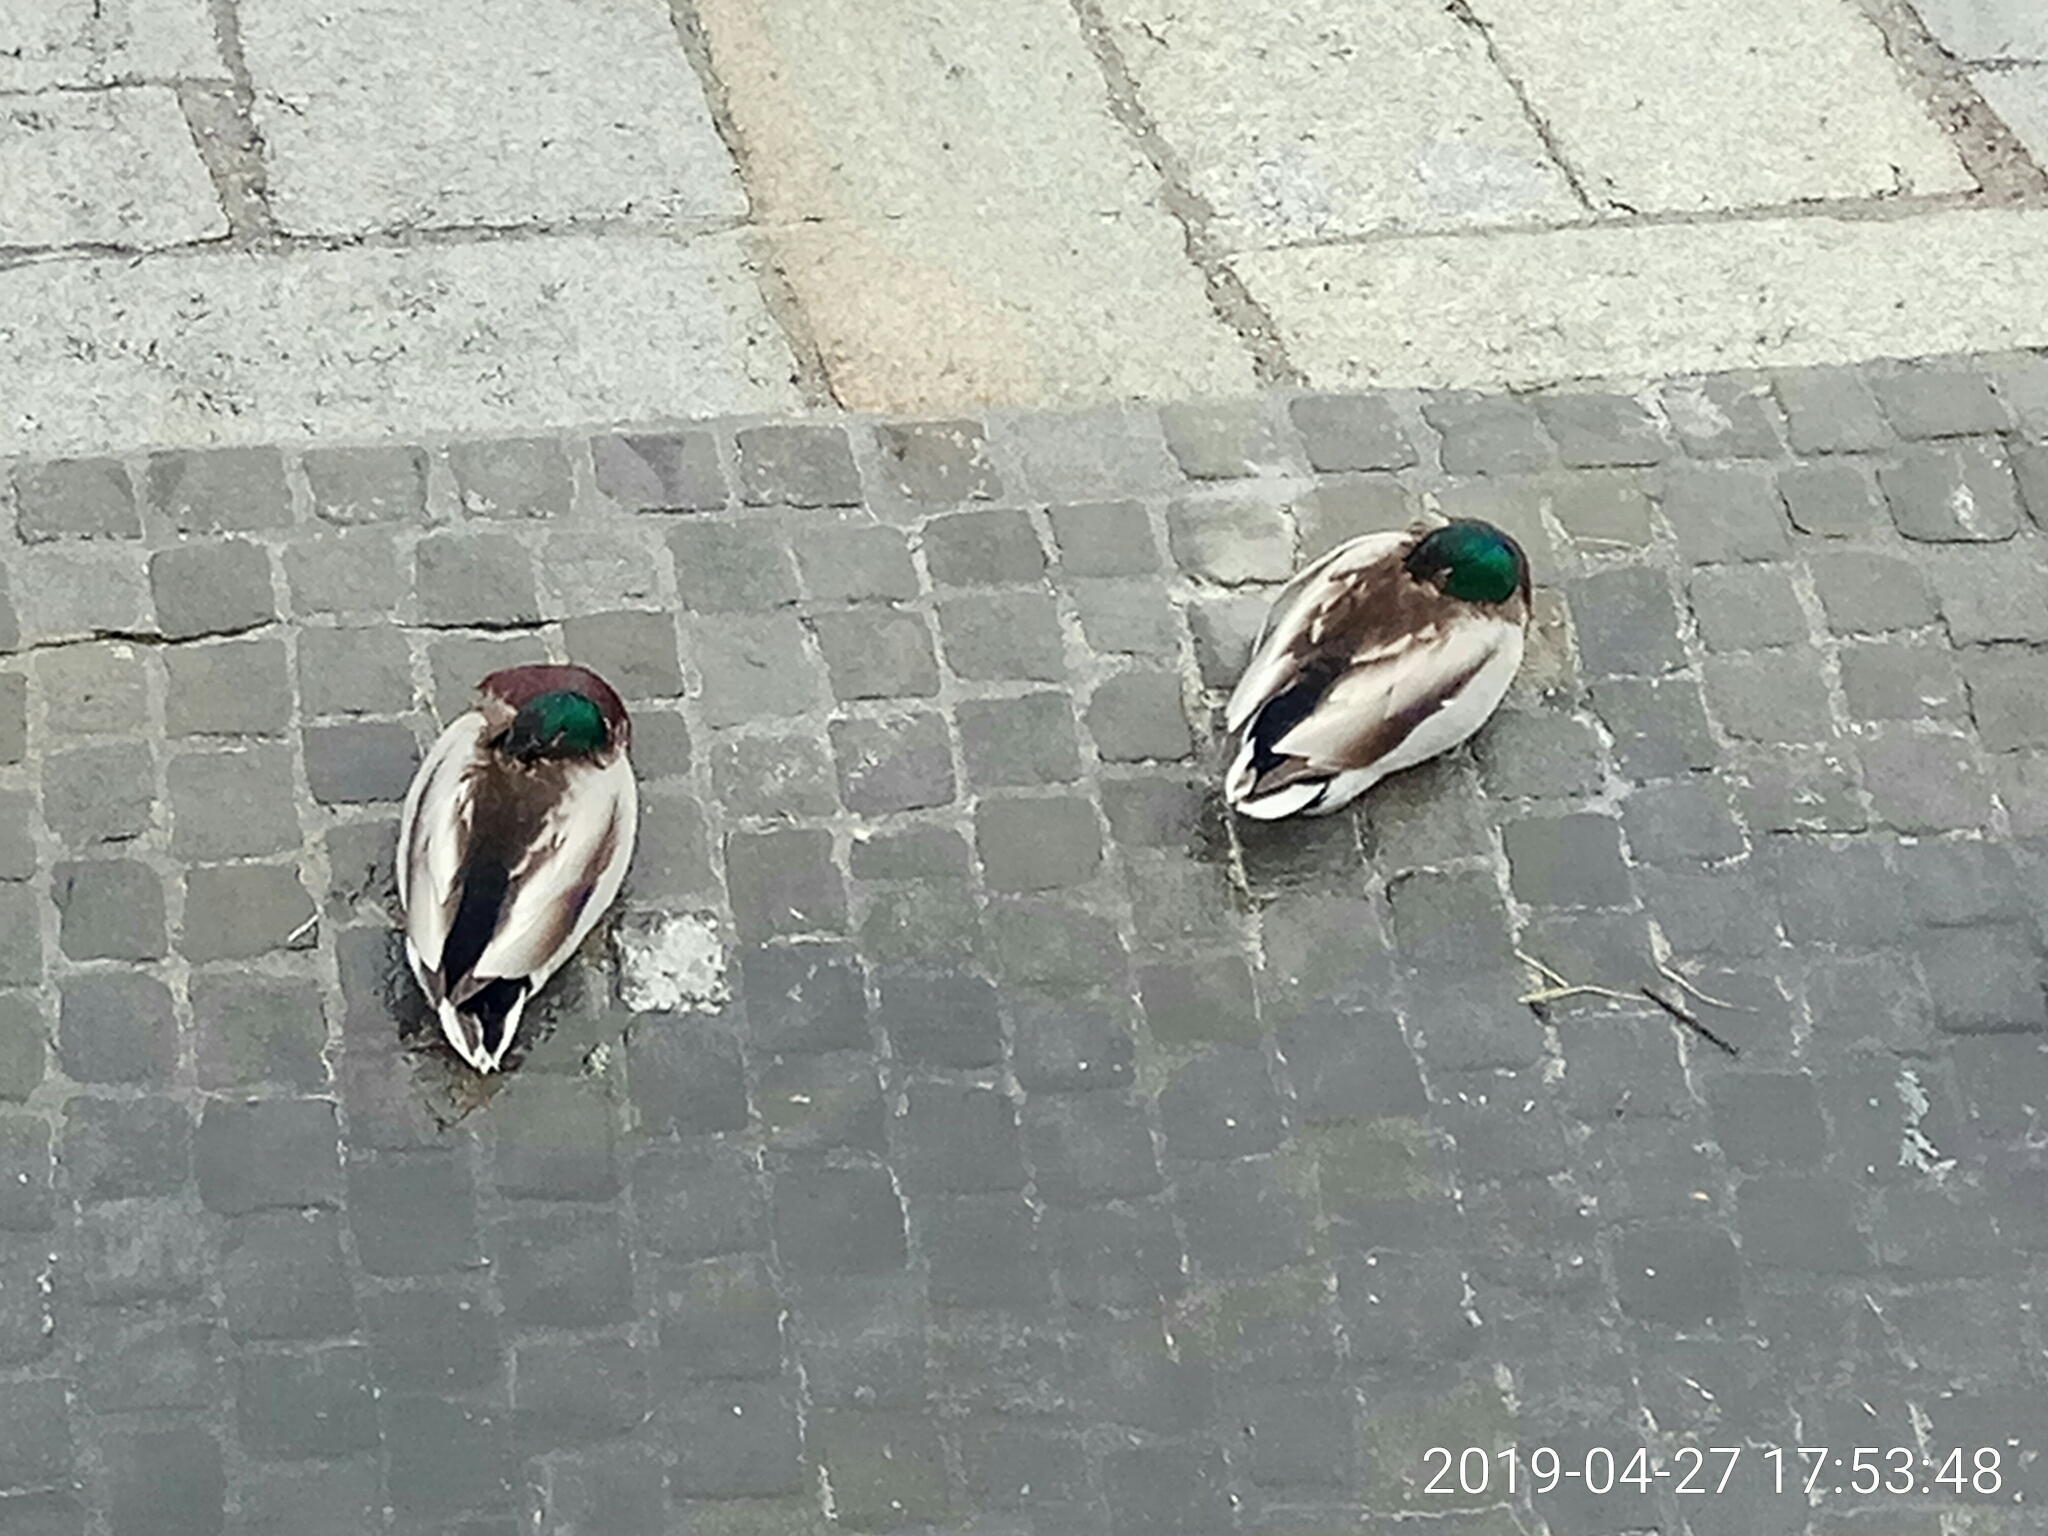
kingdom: Animalia
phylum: Chordata
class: Aves
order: Anseriformes
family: Anatidae
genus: Anas
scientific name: Anas platyrhynchos
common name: Mallard
